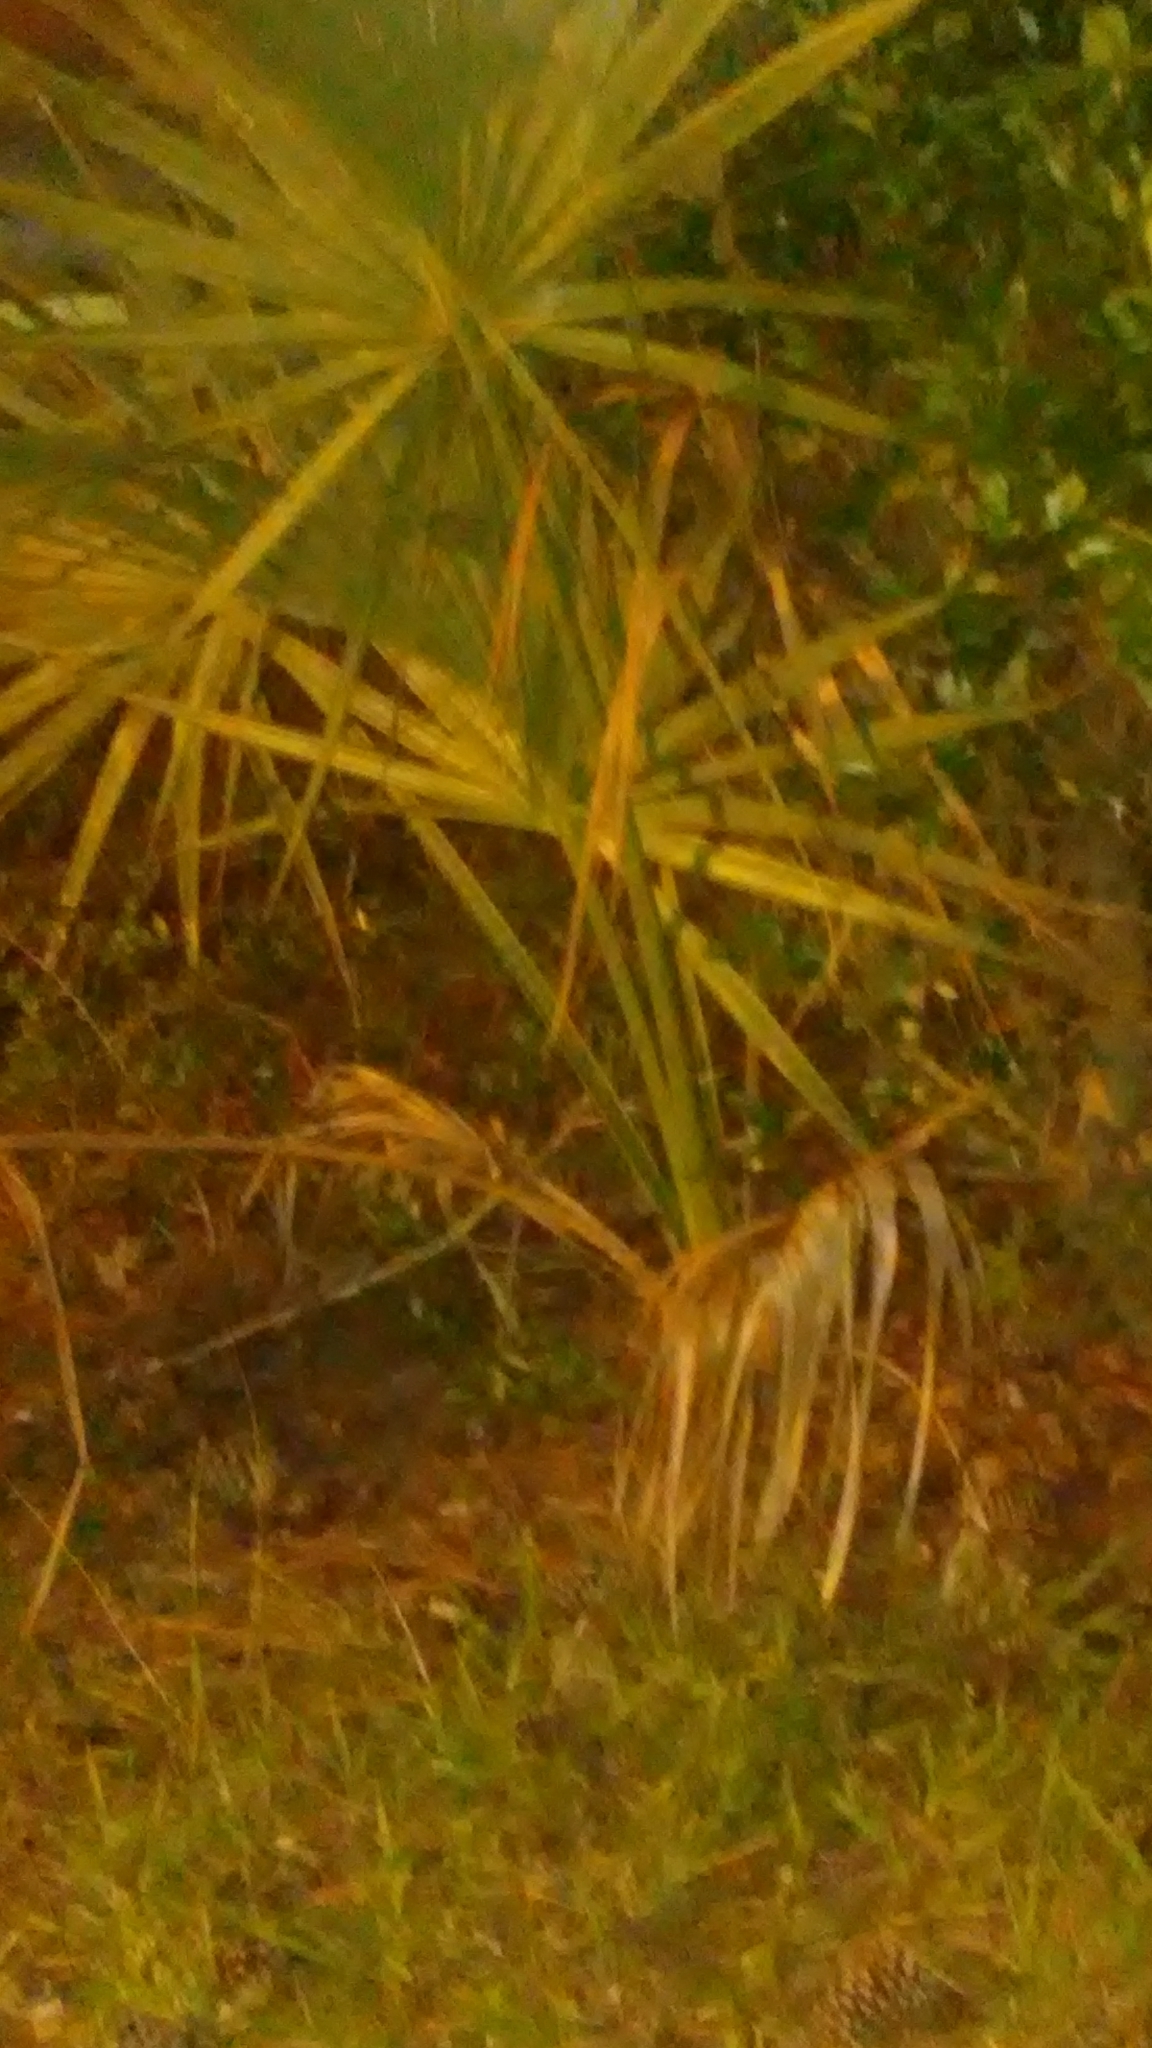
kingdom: Plantae
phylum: Tracheophyta
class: Liliopsida
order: Arecales
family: Arecaceae
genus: Sabal
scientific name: Sabal palmetto
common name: Blue palmetto
